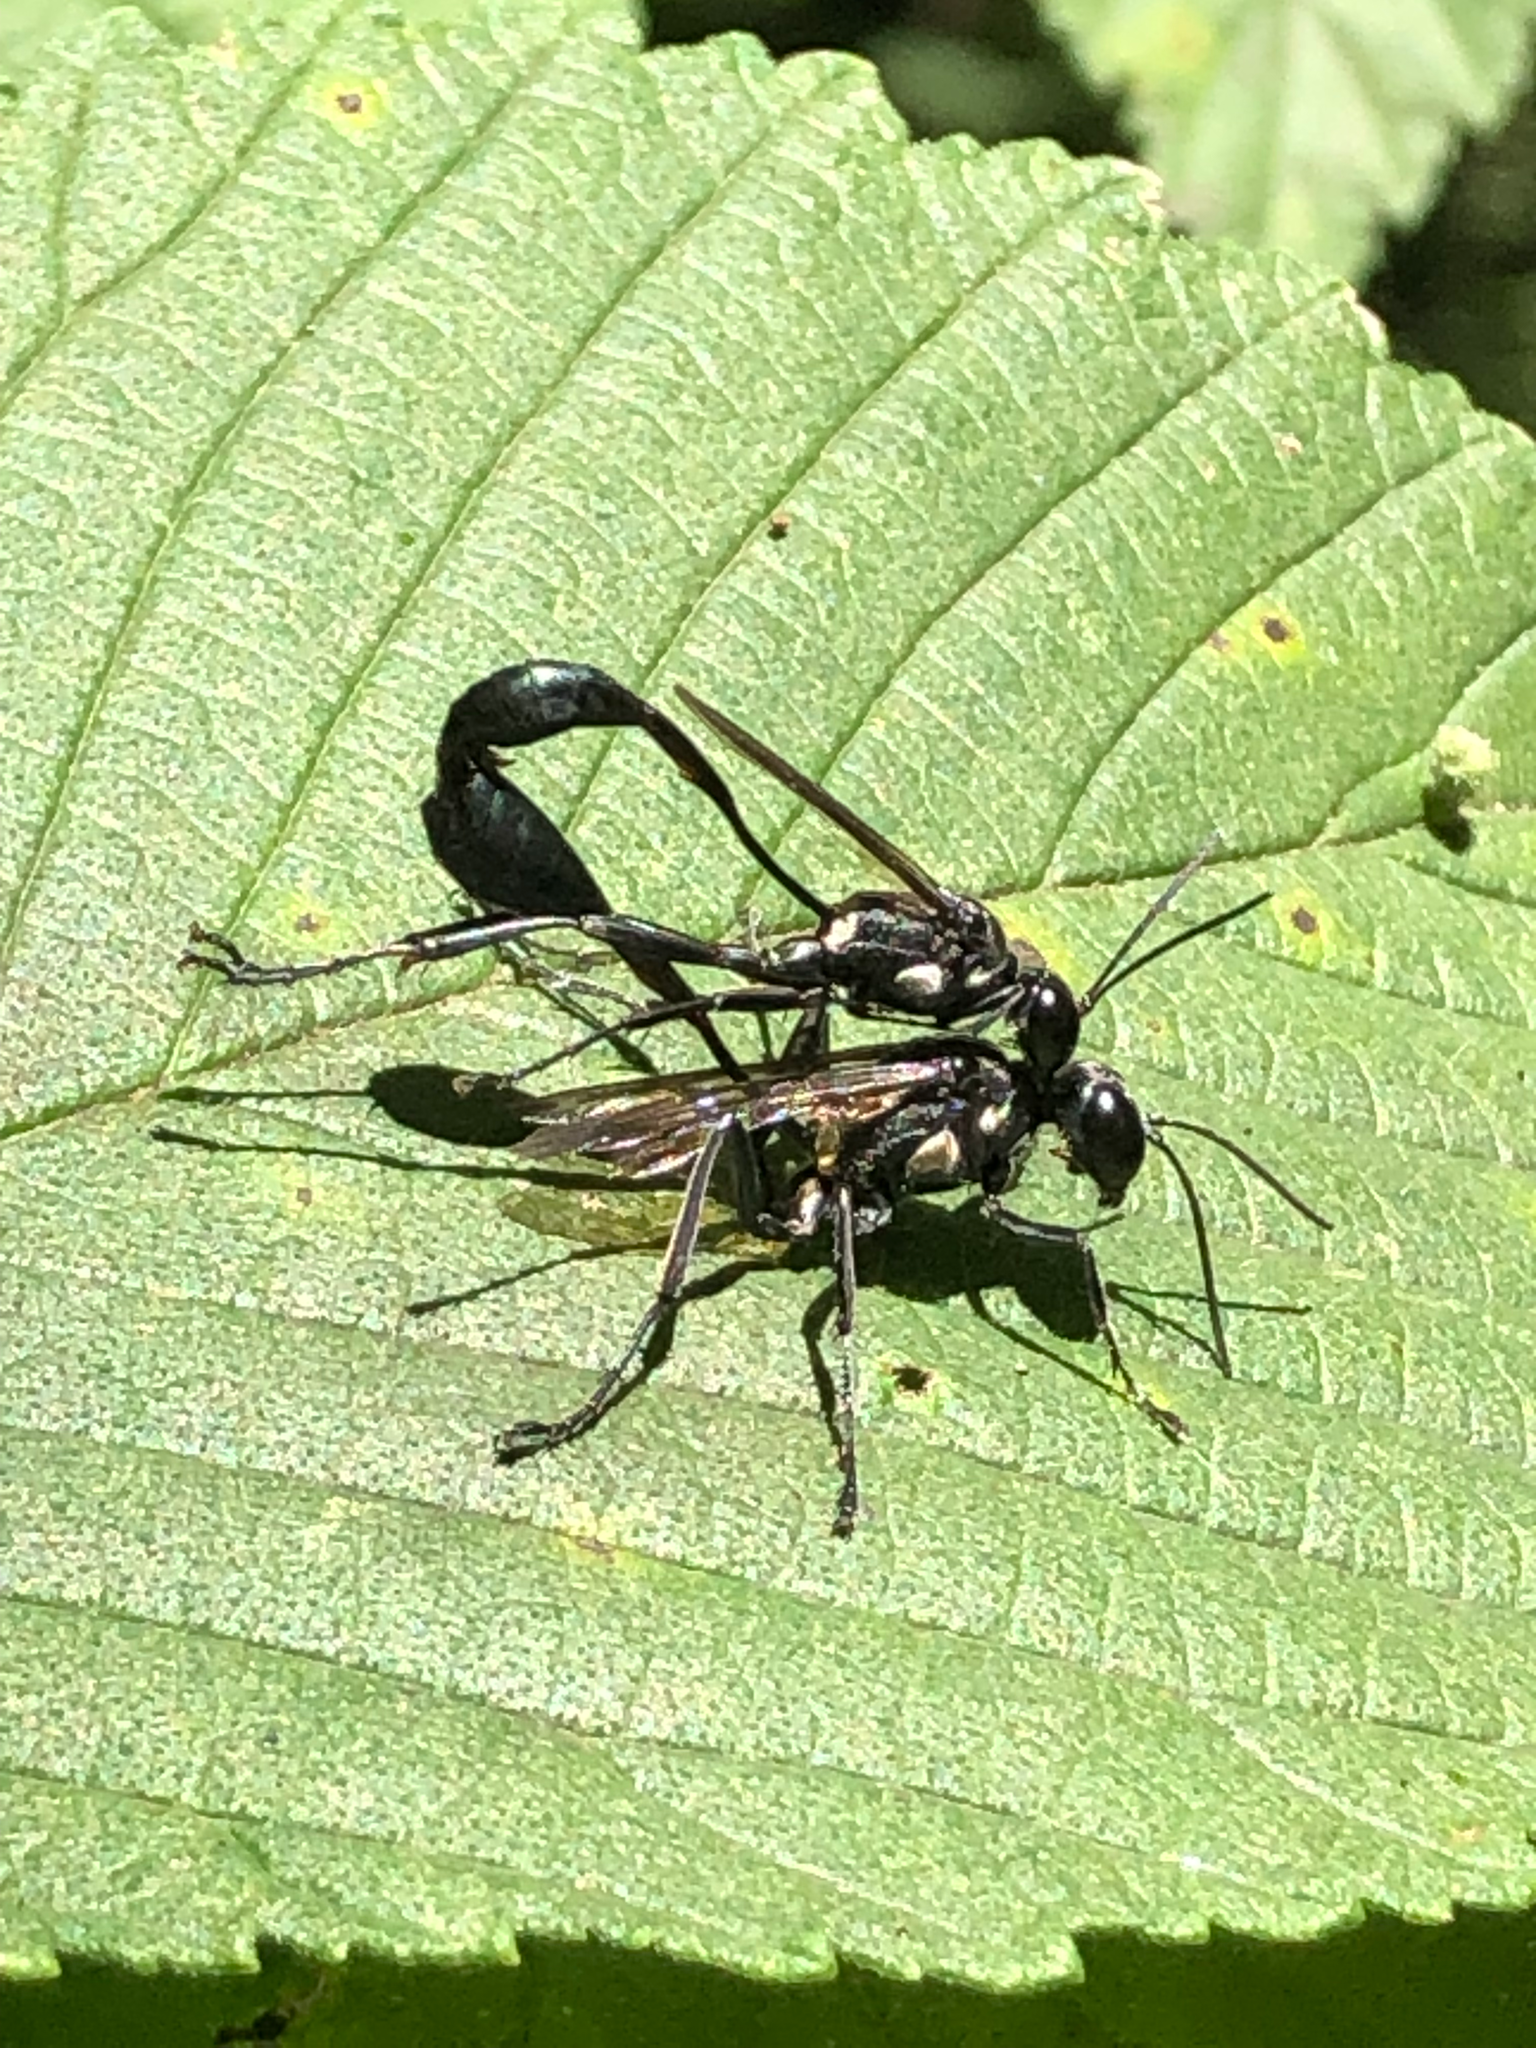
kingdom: Animalia
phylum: Arthropoda
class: Insecta
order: Hymenoptera
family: Sphecidae
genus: Eremnophila
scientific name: Eremnophila aureonotata
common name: Gold-marked thread-waisted wasp
